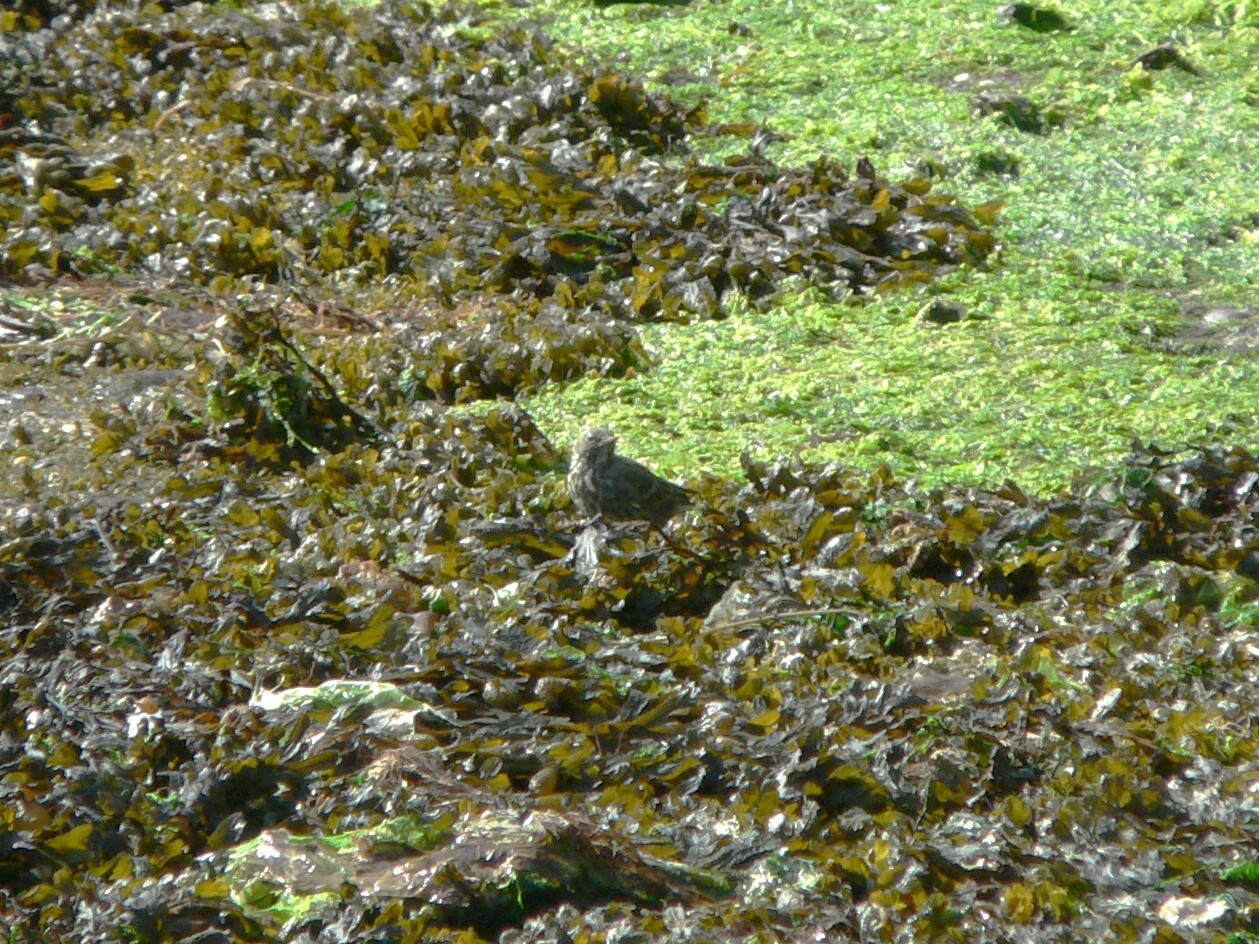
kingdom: Animalia
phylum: Chordata
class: Aves
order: Passeriformes
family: Motacillidae
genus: Anthus
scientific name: Anthus petrosus
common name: Eurasian rock pipit
